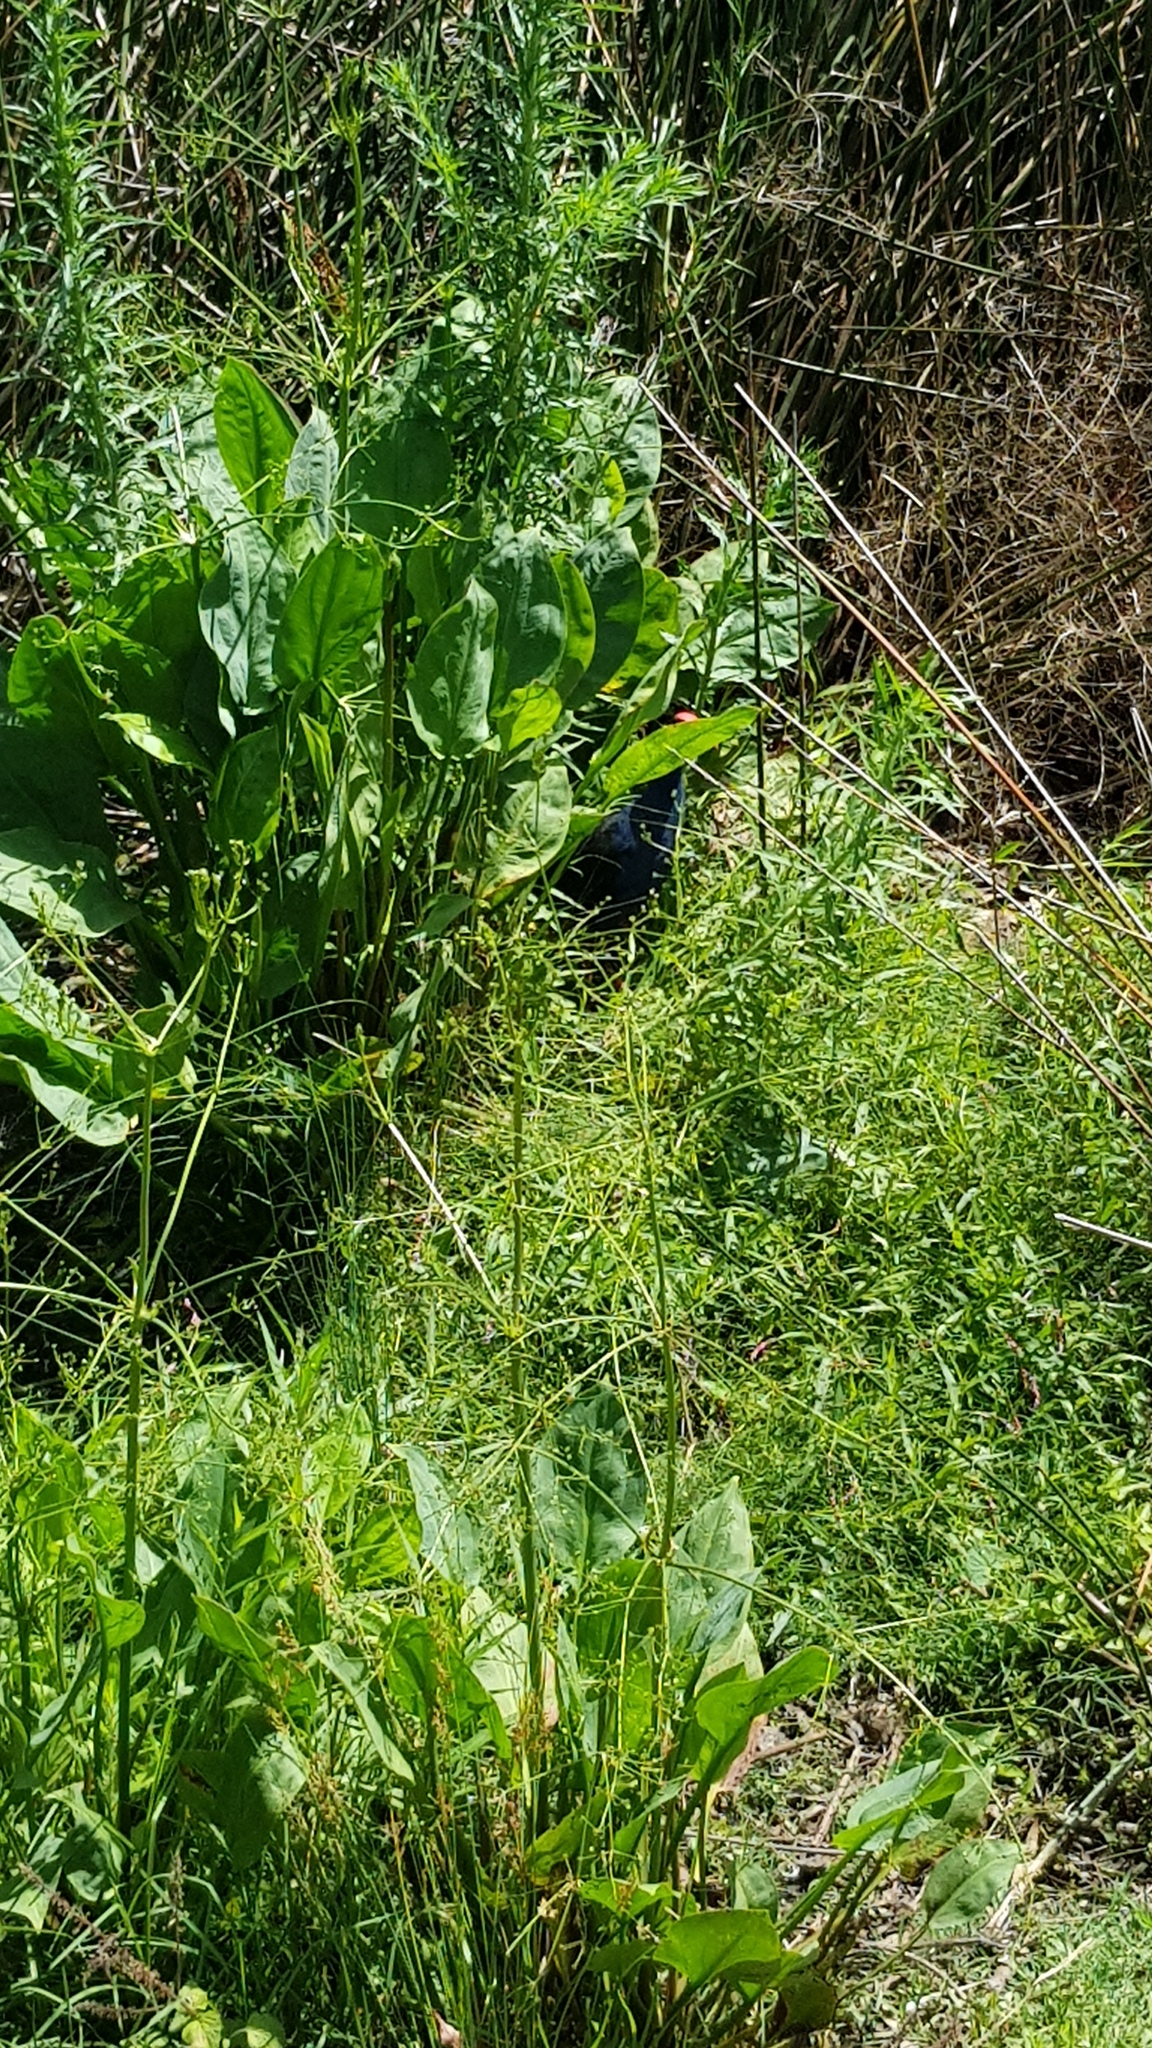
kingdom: Animalia
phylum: Chordata
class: Aves
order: Gruiformes
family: Rallidae
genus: Porphyrio
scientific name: Porphyrio melanotus
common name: Australasian swamphen
